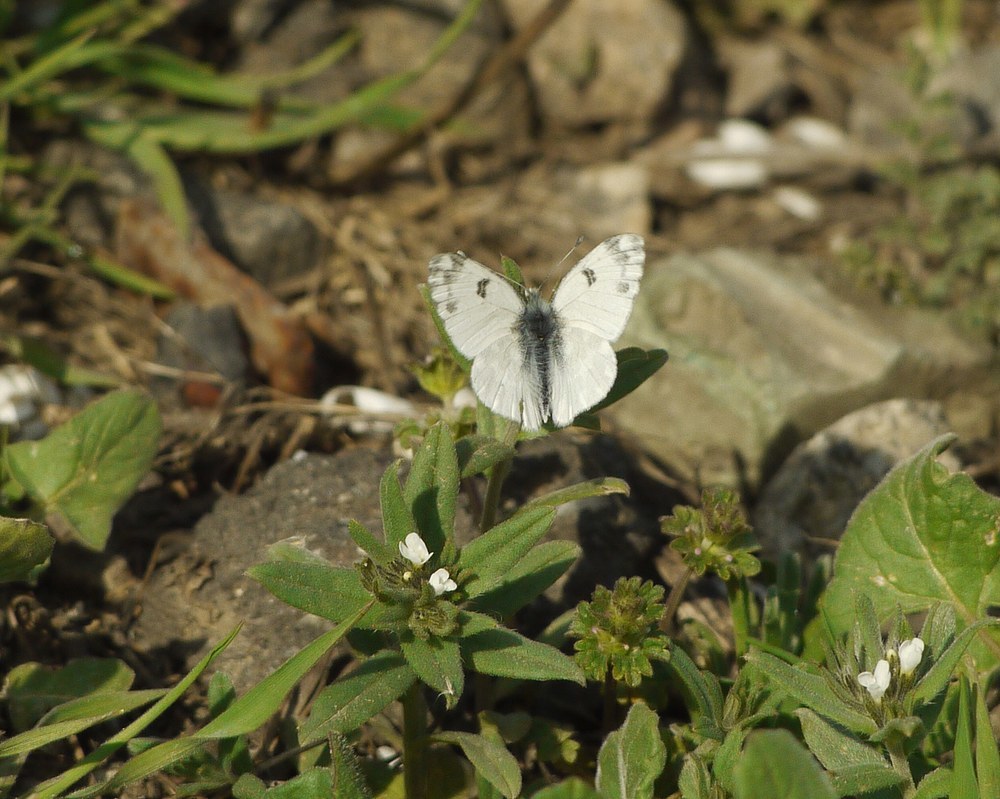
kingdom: Animalia
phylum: Arthropoda
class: Insecta
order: Lepidoptera
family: Pieridae
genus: Pontia
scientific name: Pontia edusa
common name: Eastern bath white
